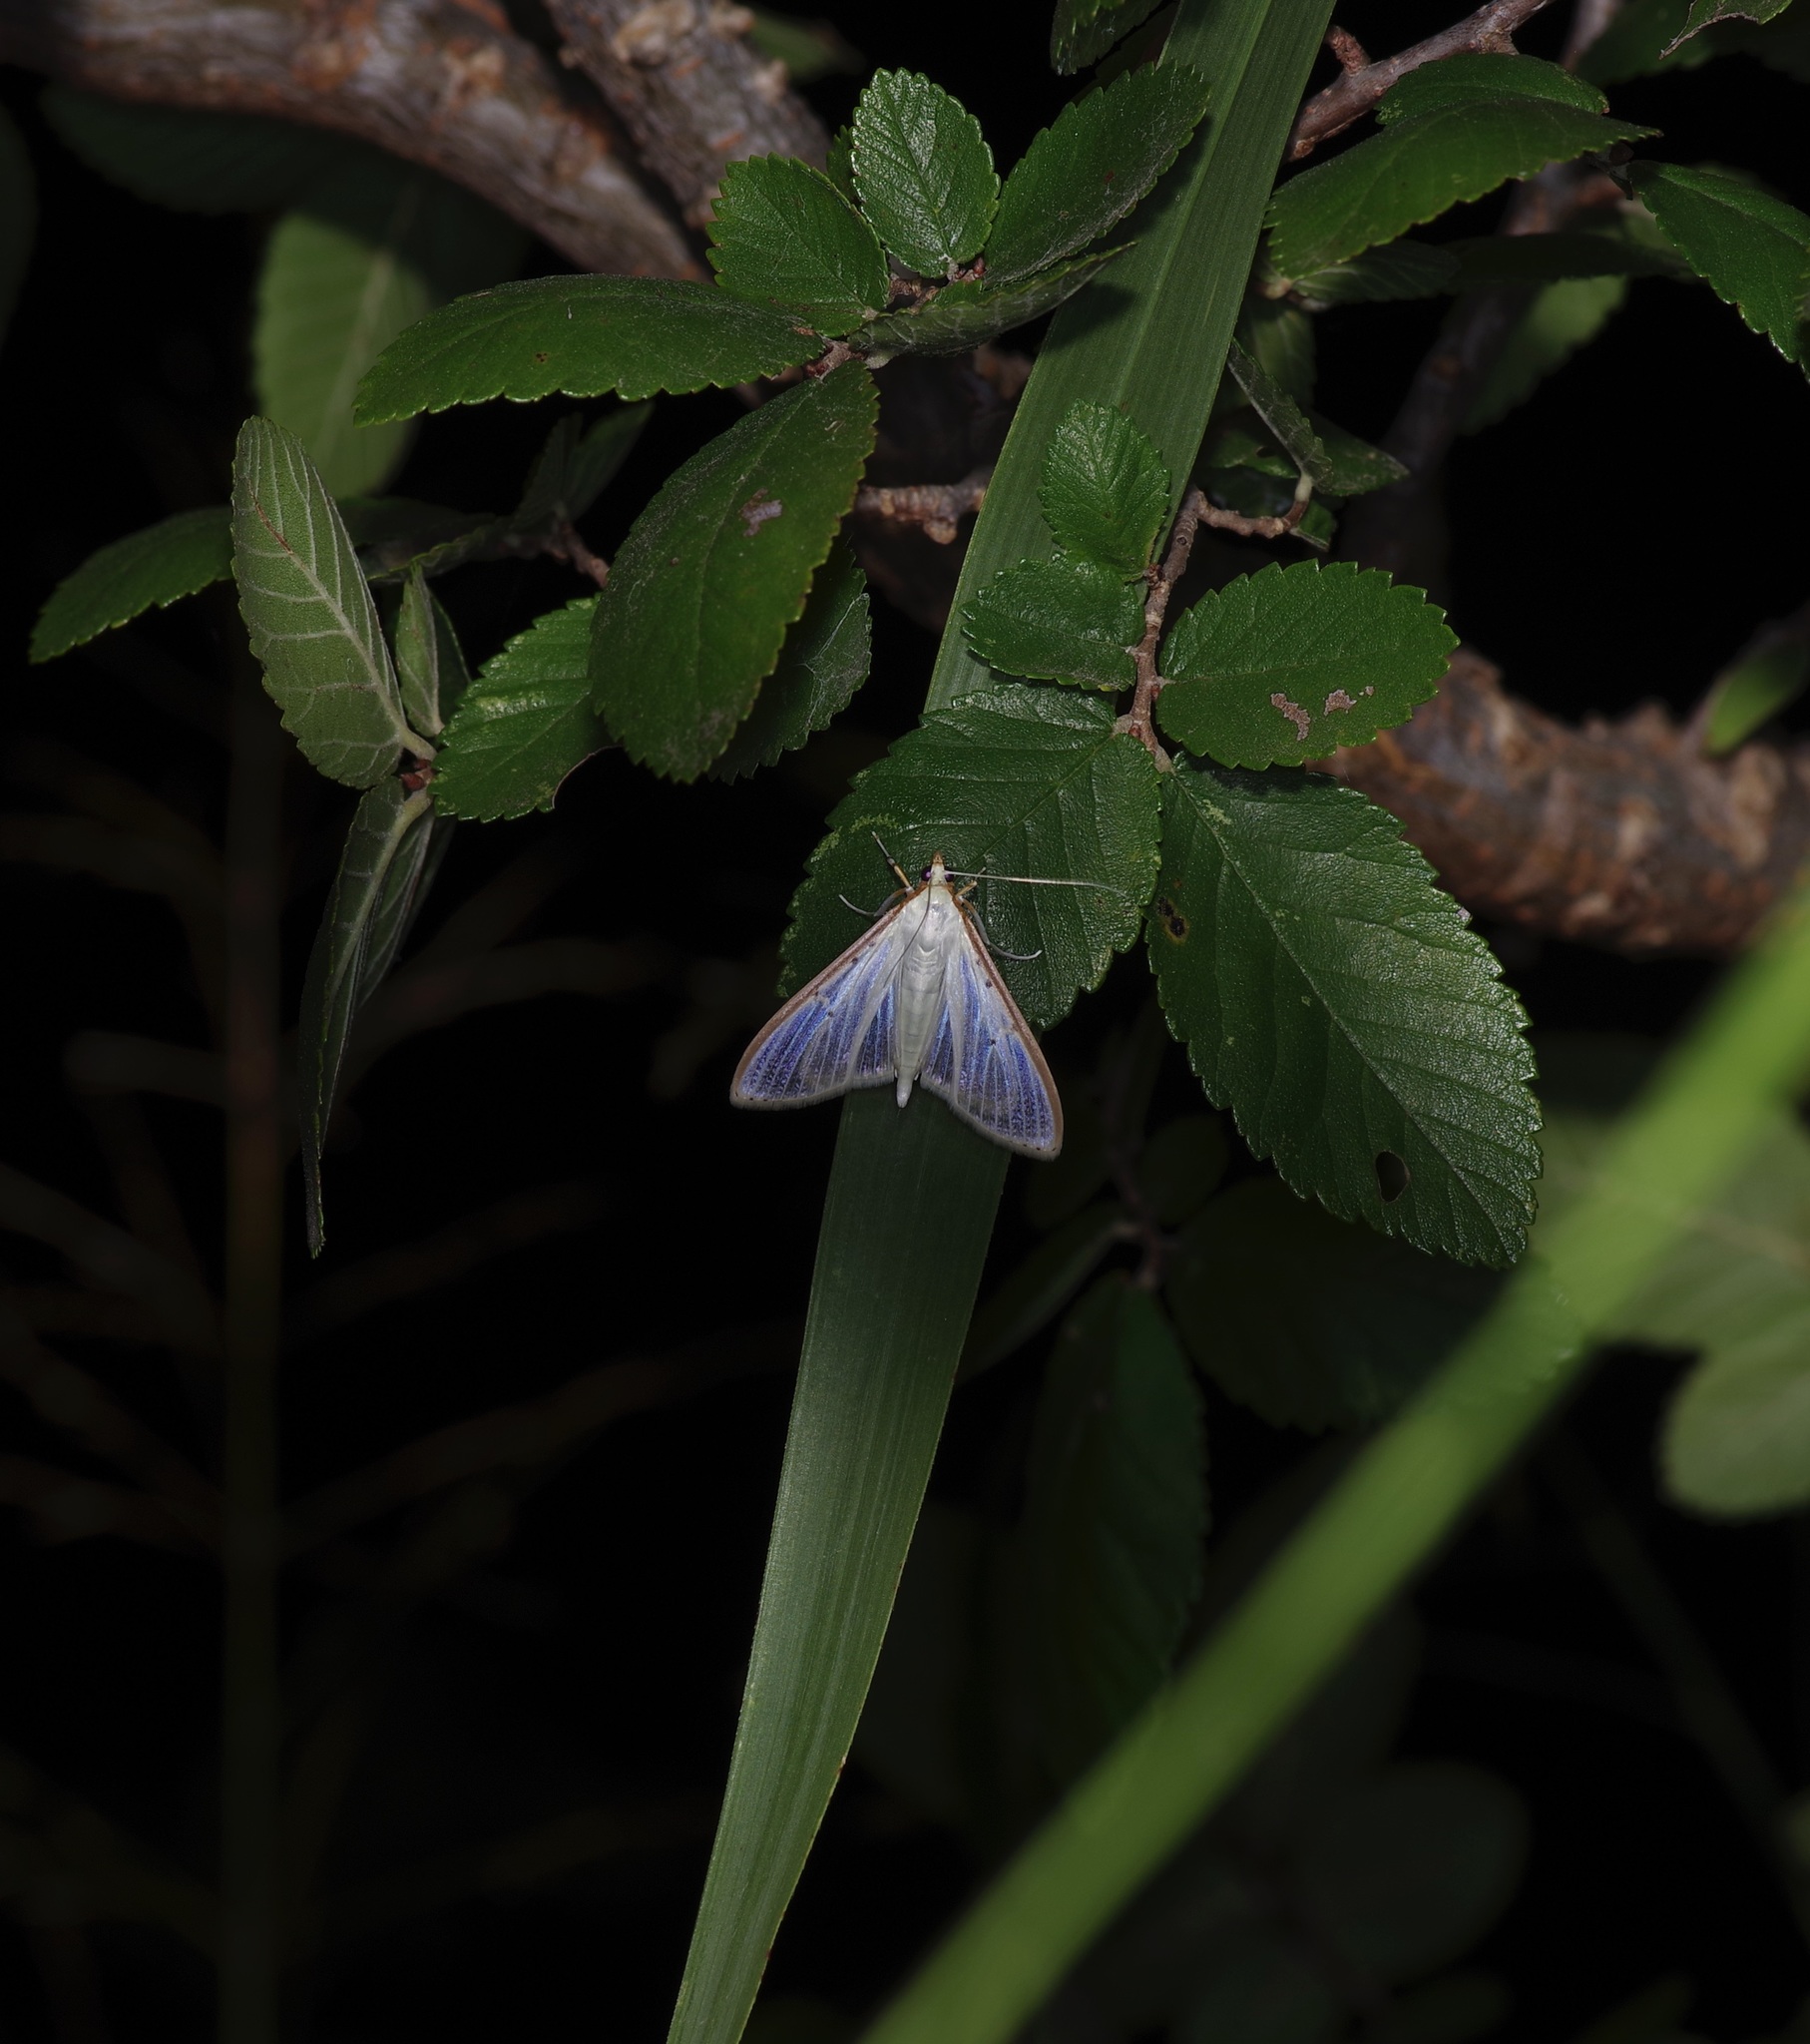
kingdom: Animalia
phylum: Arthropoda
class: Insecta
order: Lepidoptera
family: Crambidae
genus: Palpita
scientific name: Palpita quadristigmalis
